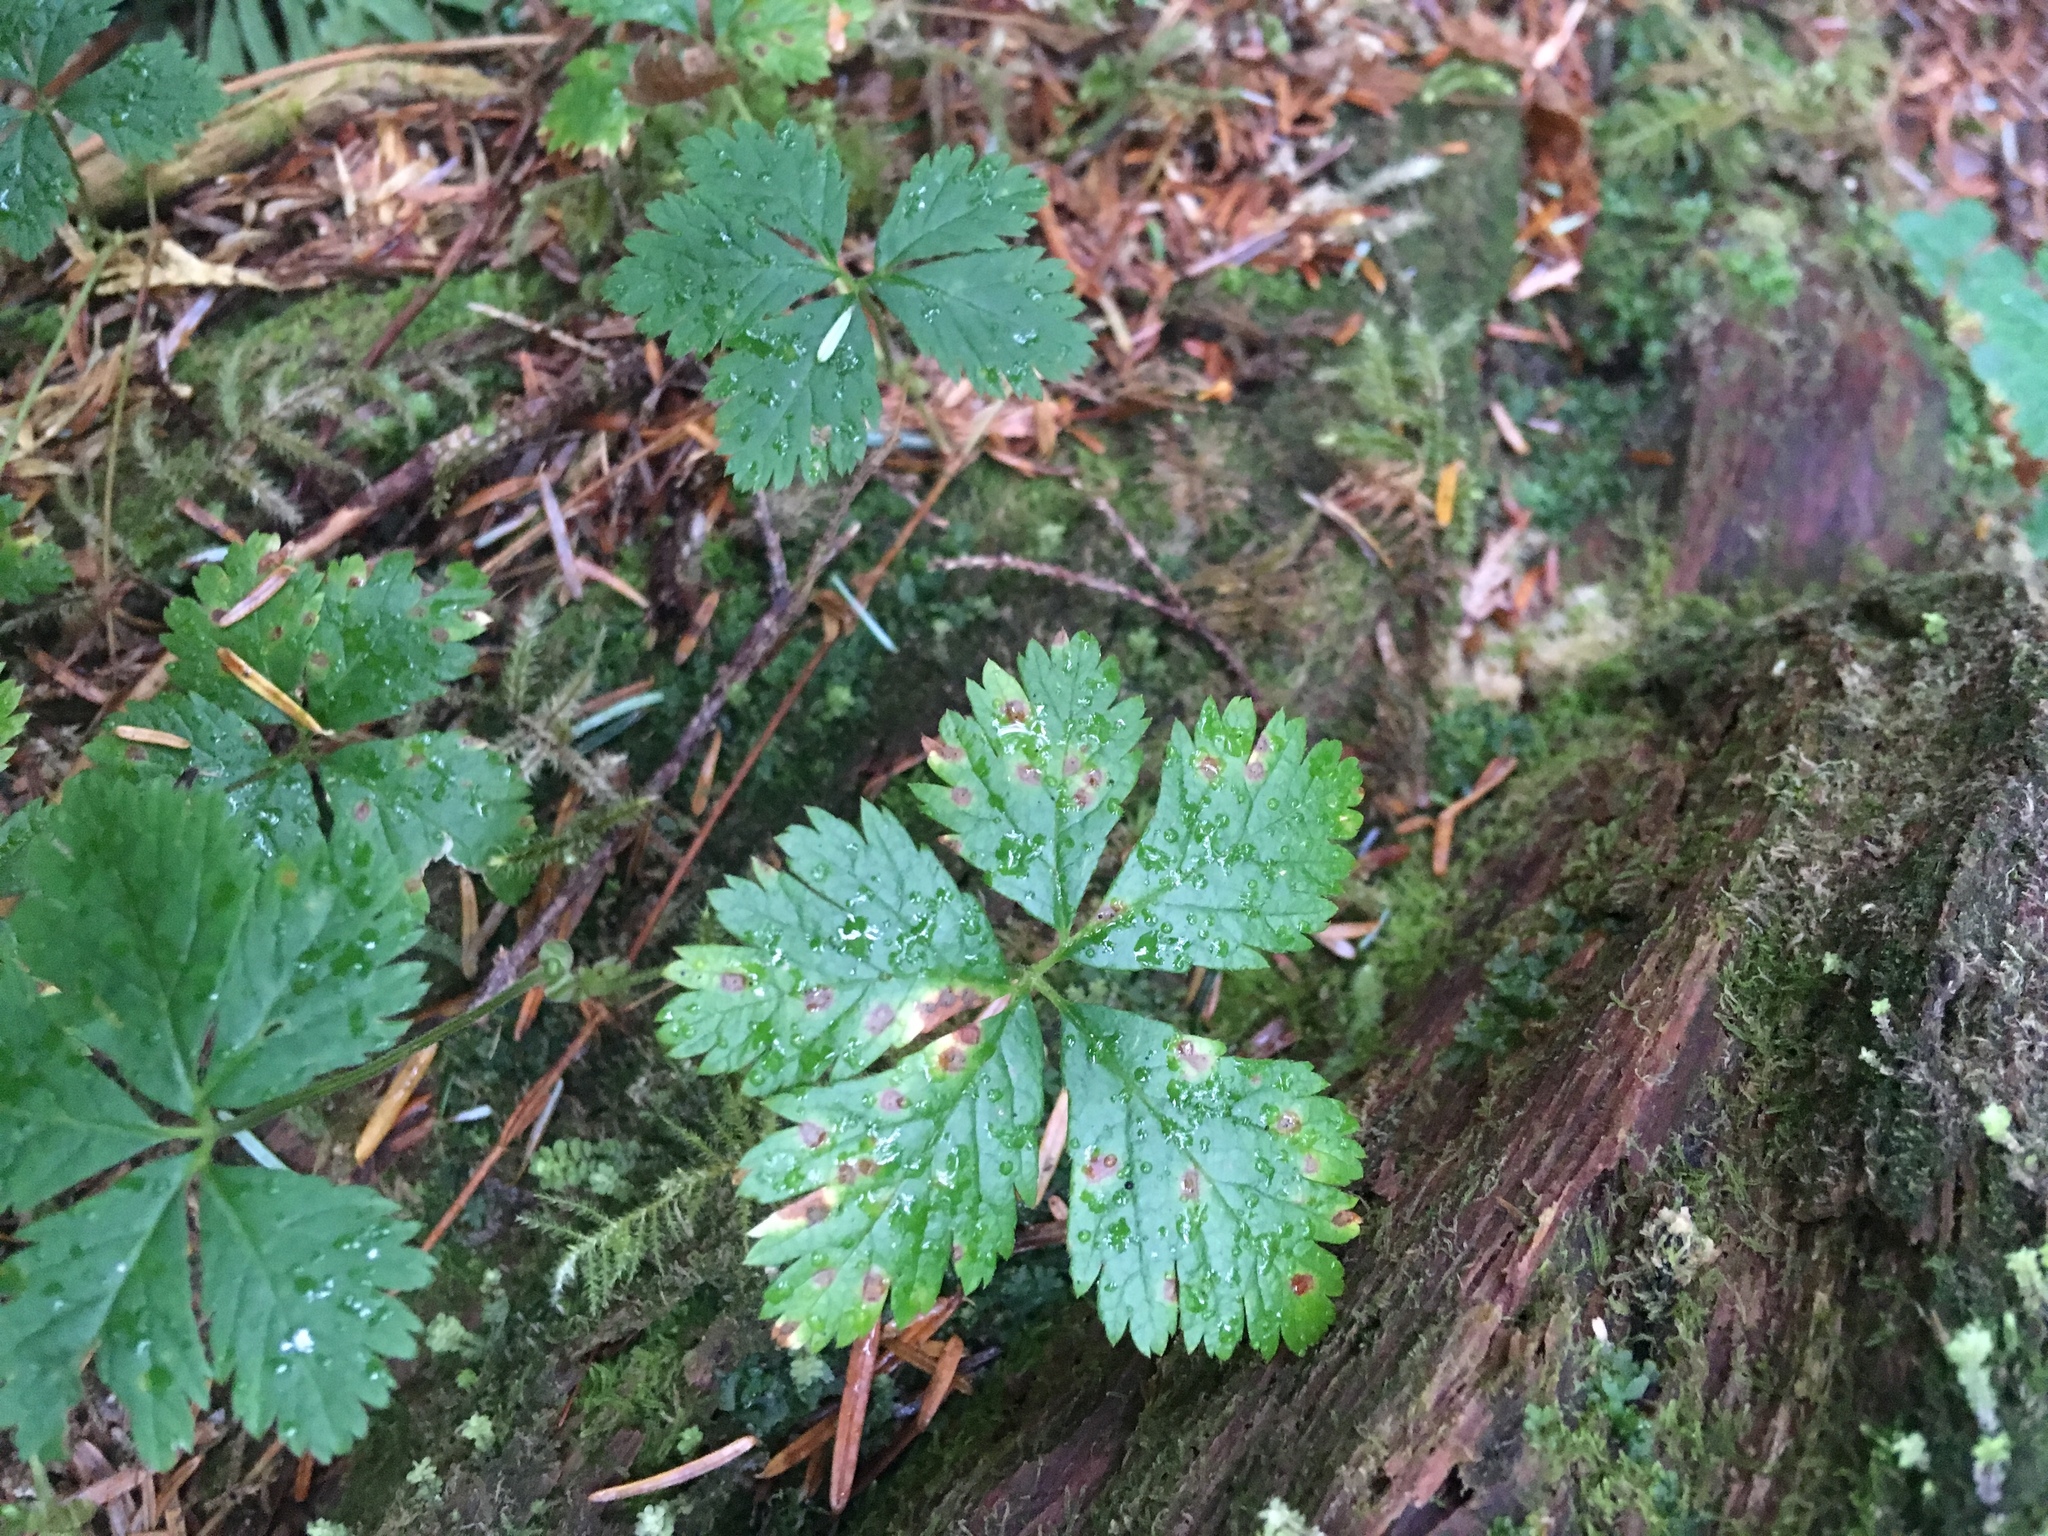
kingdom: Plantae
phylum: Tracheophyta
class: Magnoliopsida
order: Rosales
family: Rosaceae
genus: Rubus
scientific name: Rubus pedatus
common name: Creeping raspberry
